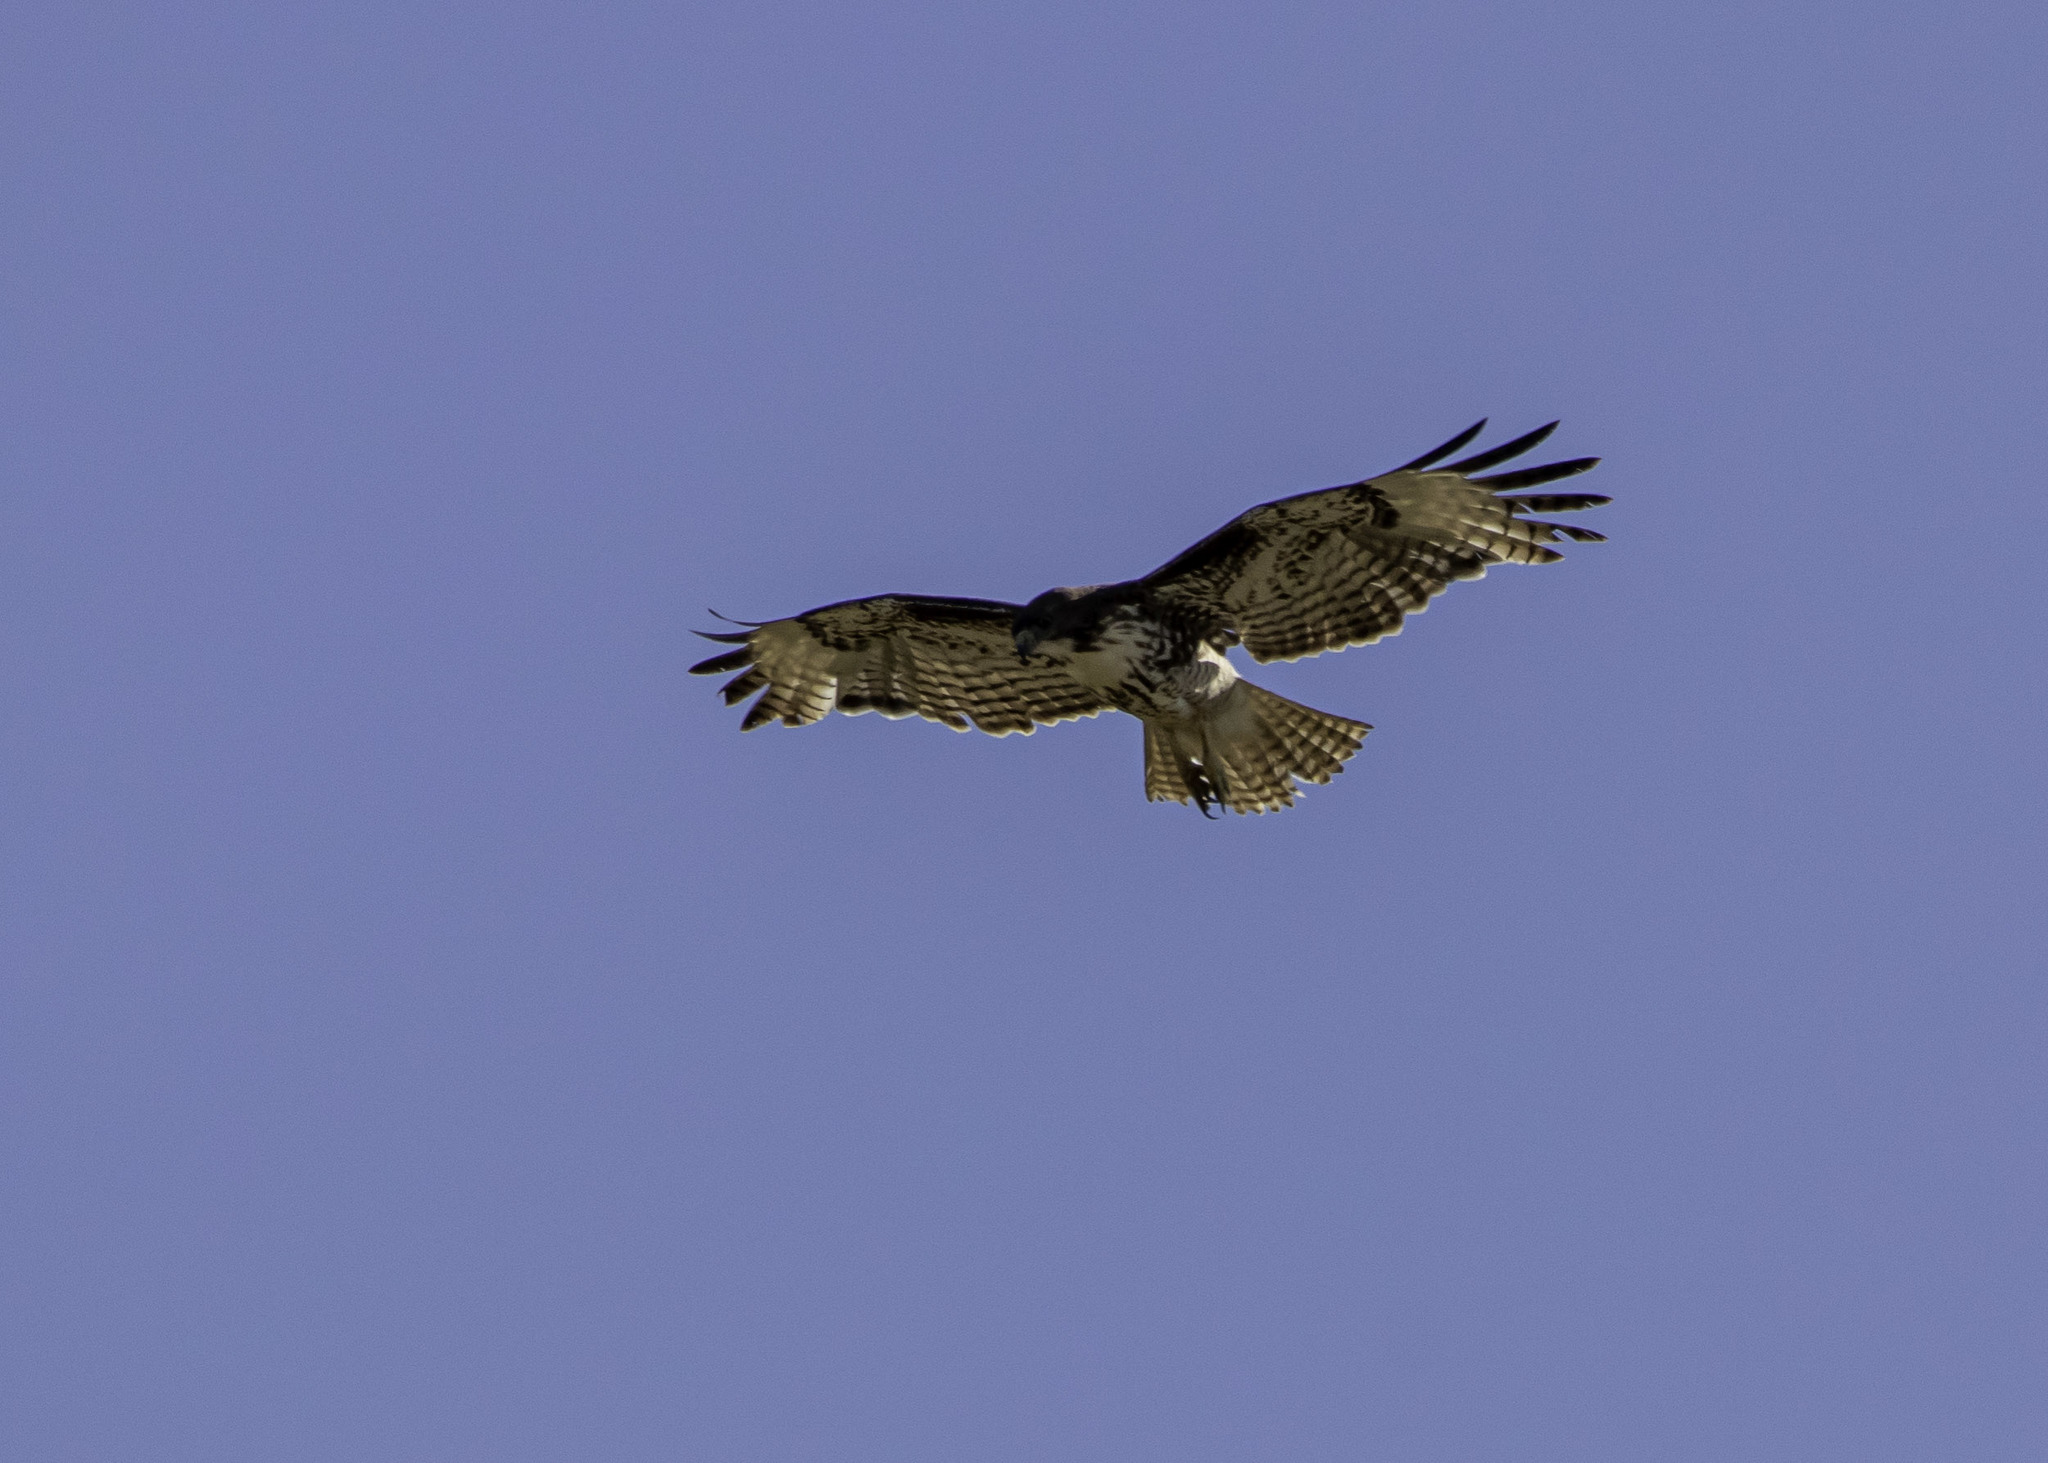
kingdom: Animalia
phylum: Chordata
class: Aves
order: Accipitriformes
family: Accipitridae
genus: Buteo
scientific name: Buteo jamaicensis
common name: Red-tailed hawk
